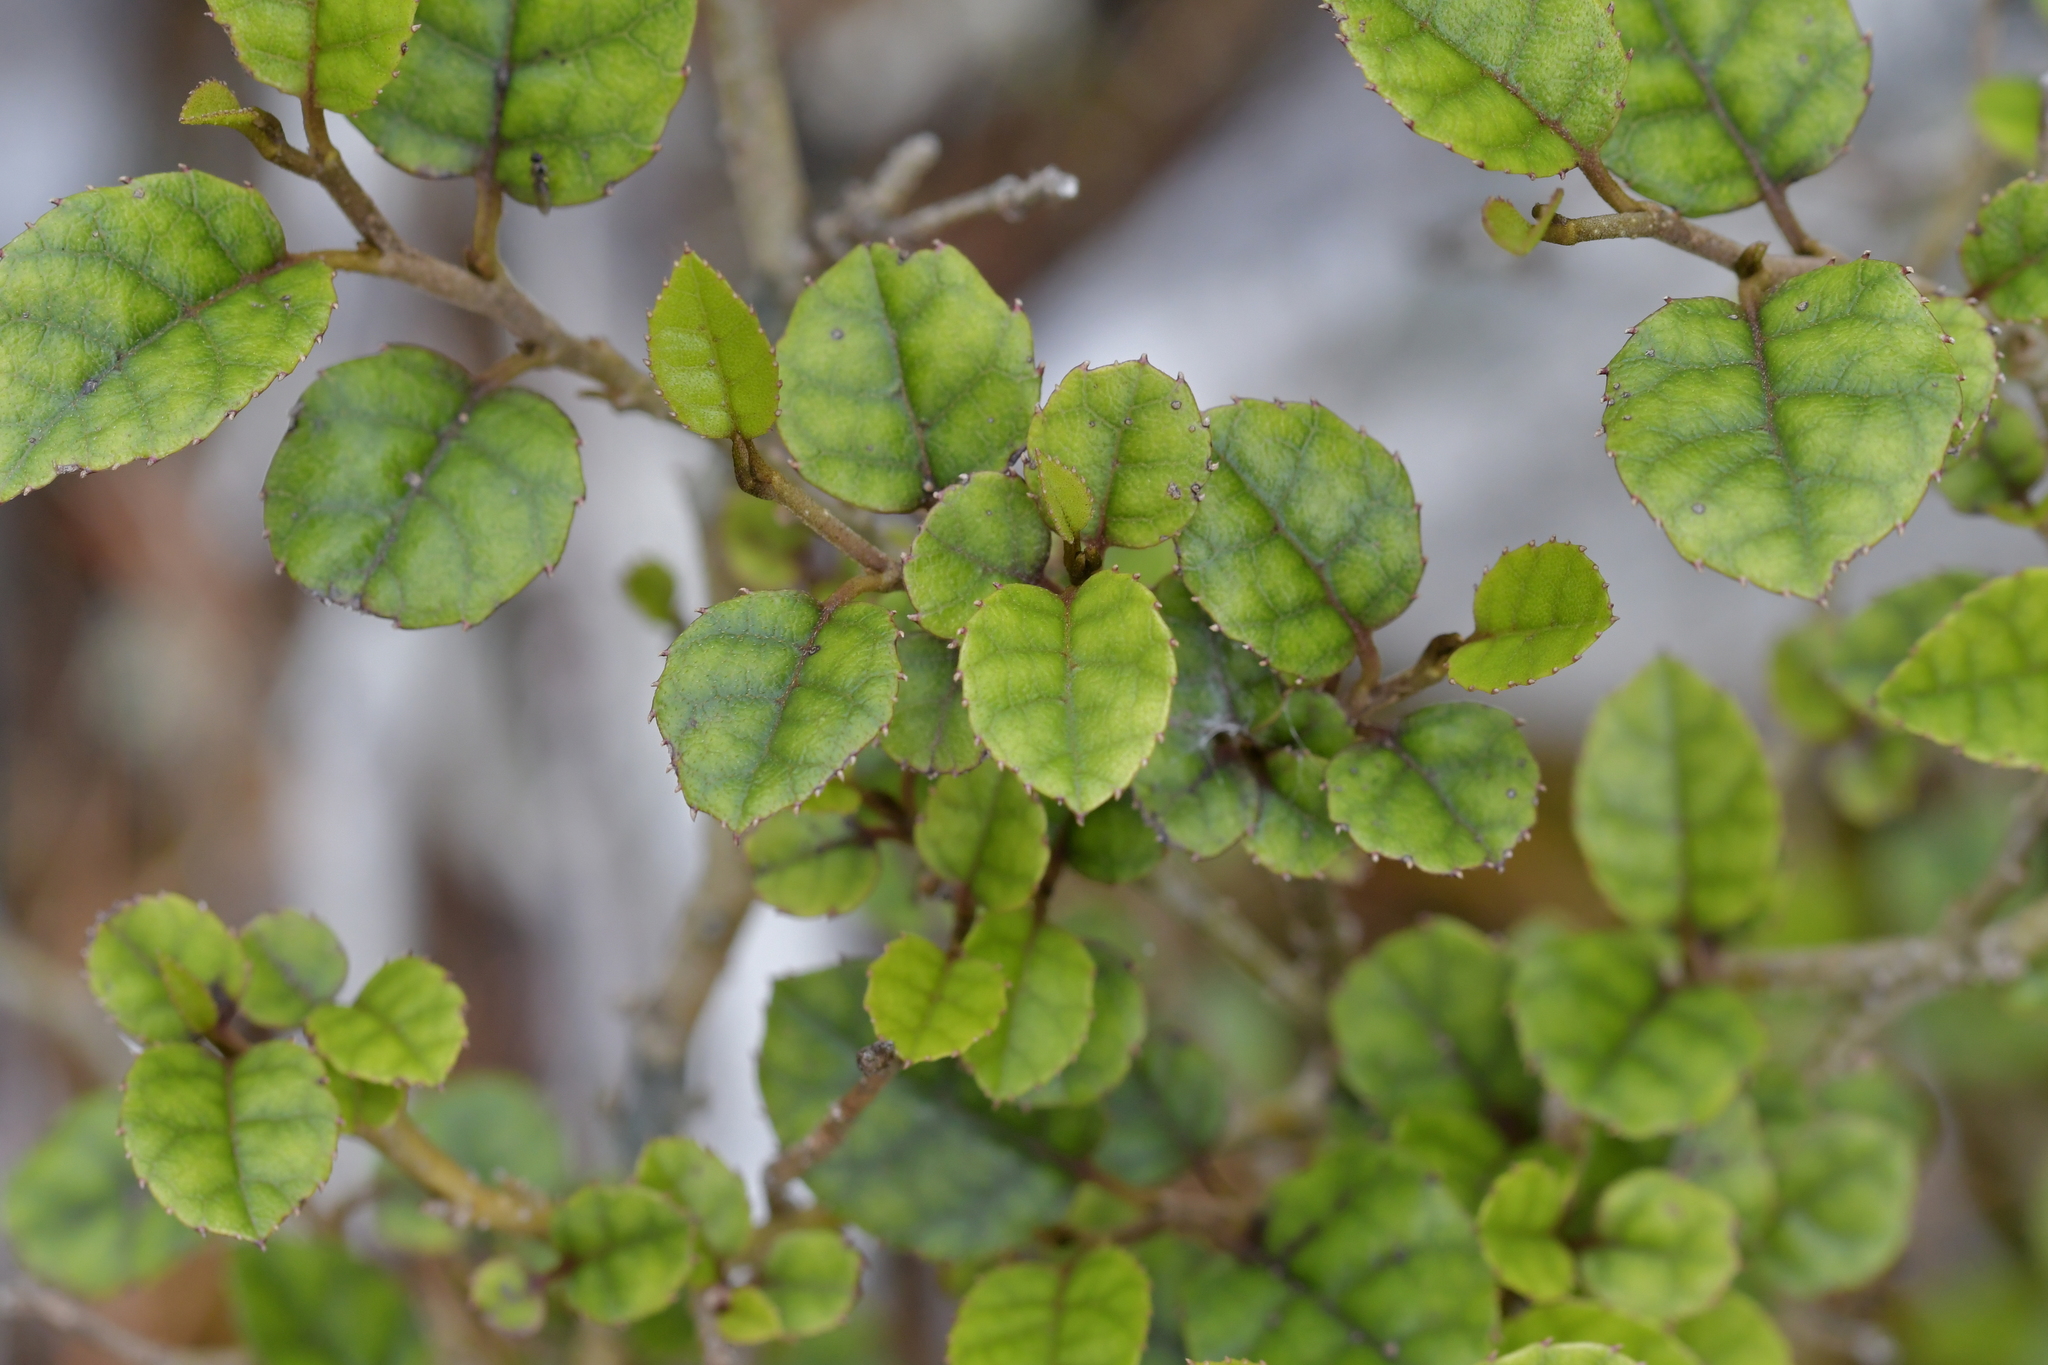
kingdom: Plantae
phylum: Tracheophyta
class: Magnoliopsida
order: Asterales
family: Rousseaceae
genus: Carpodetus
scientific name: Carpodetus serratus
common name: White mapau
